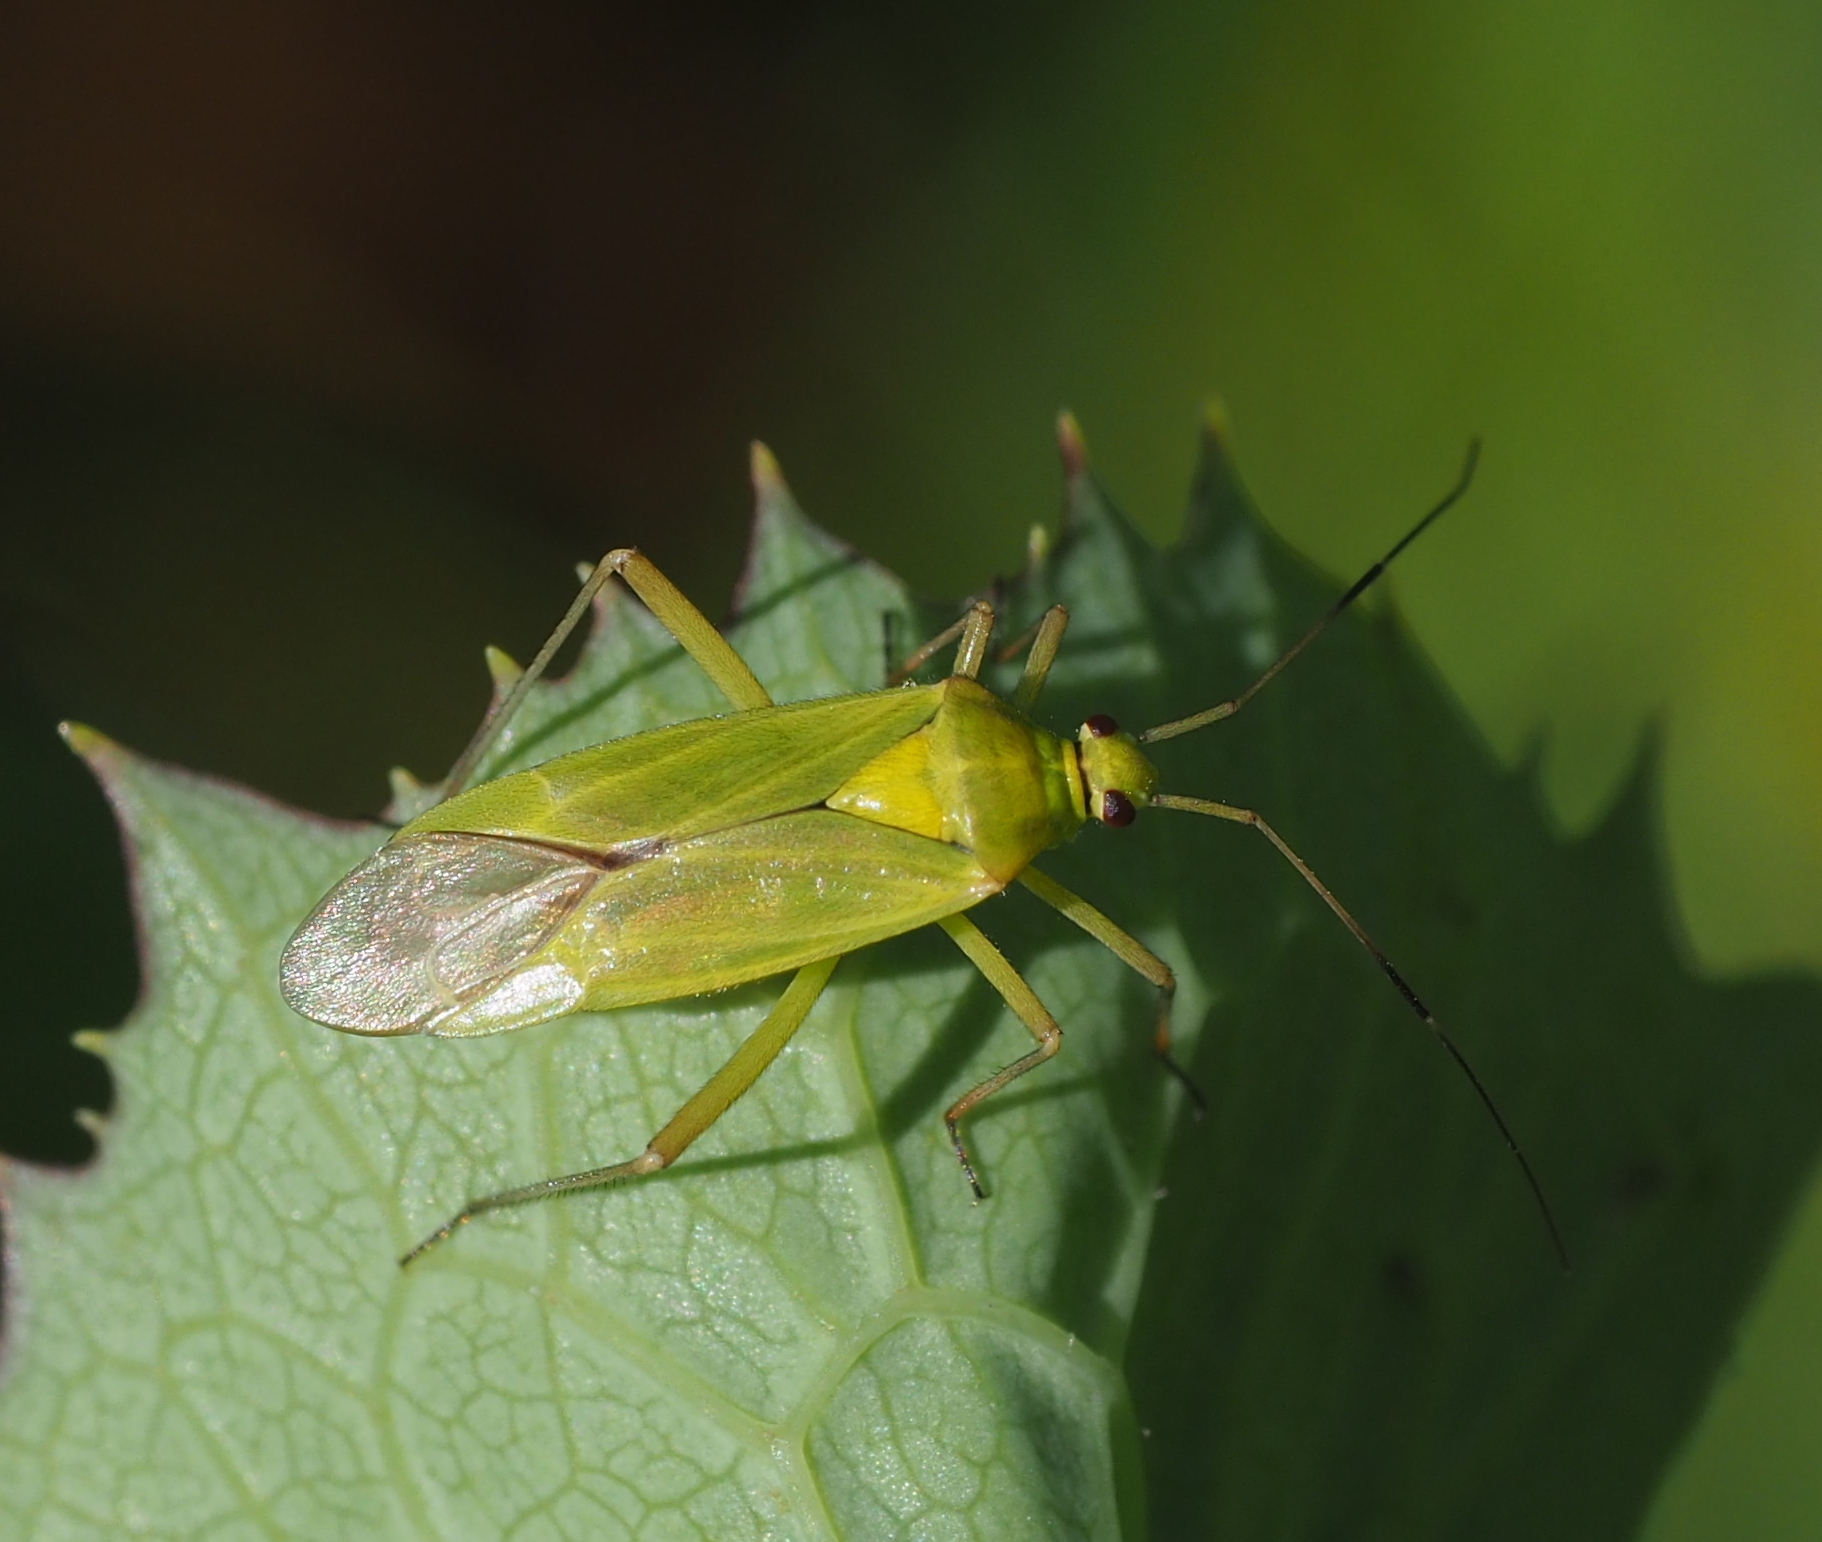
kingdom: Animalia
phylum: Arthropoda
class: Insecta
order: Hemiptera
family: Miridae
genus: Calocoris
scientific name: Calocoris alpestris
